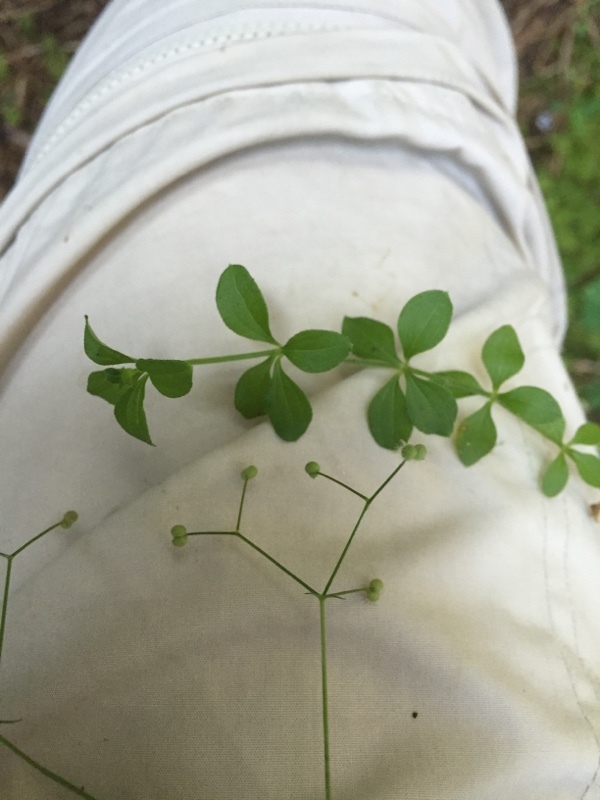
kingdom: Plantae
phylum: Tracheophyta
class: Magnoliopsida
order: Gentianales
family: Rubiaceae
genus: Galium
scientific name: Galium rotundifolium
